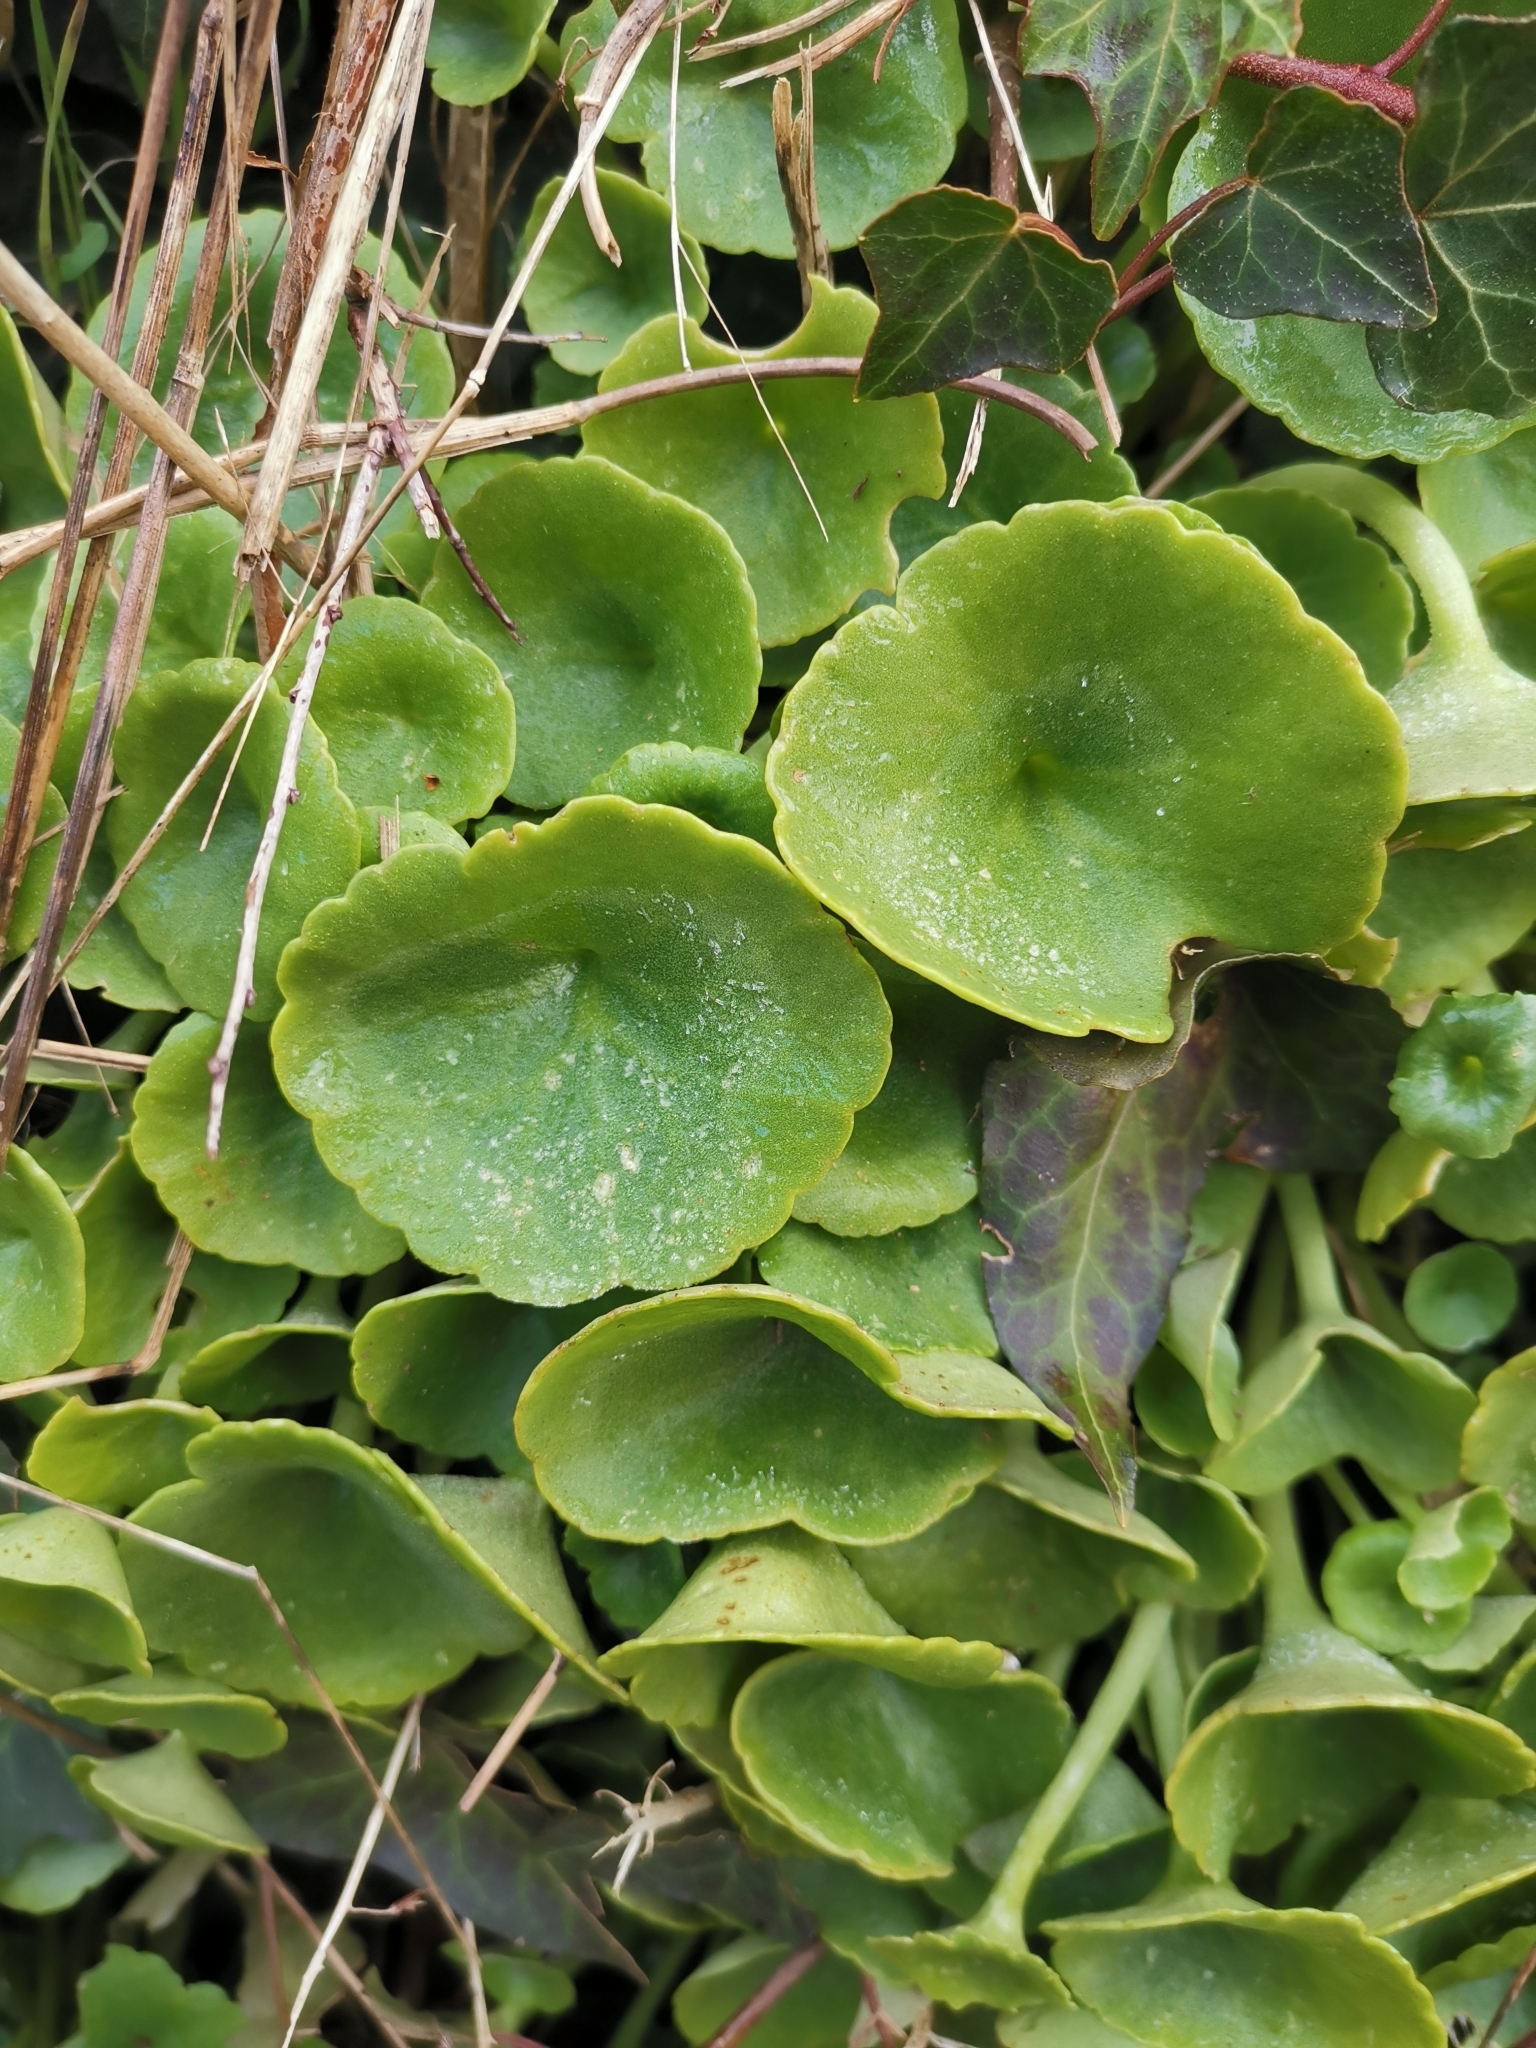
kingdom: Plantae
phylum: Tracheophyta
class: Magnoliopsida
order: Saxifragales
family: Crassulaceae
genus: Umbilicus
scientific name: Umbilicus rupestris
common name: Navelwort
